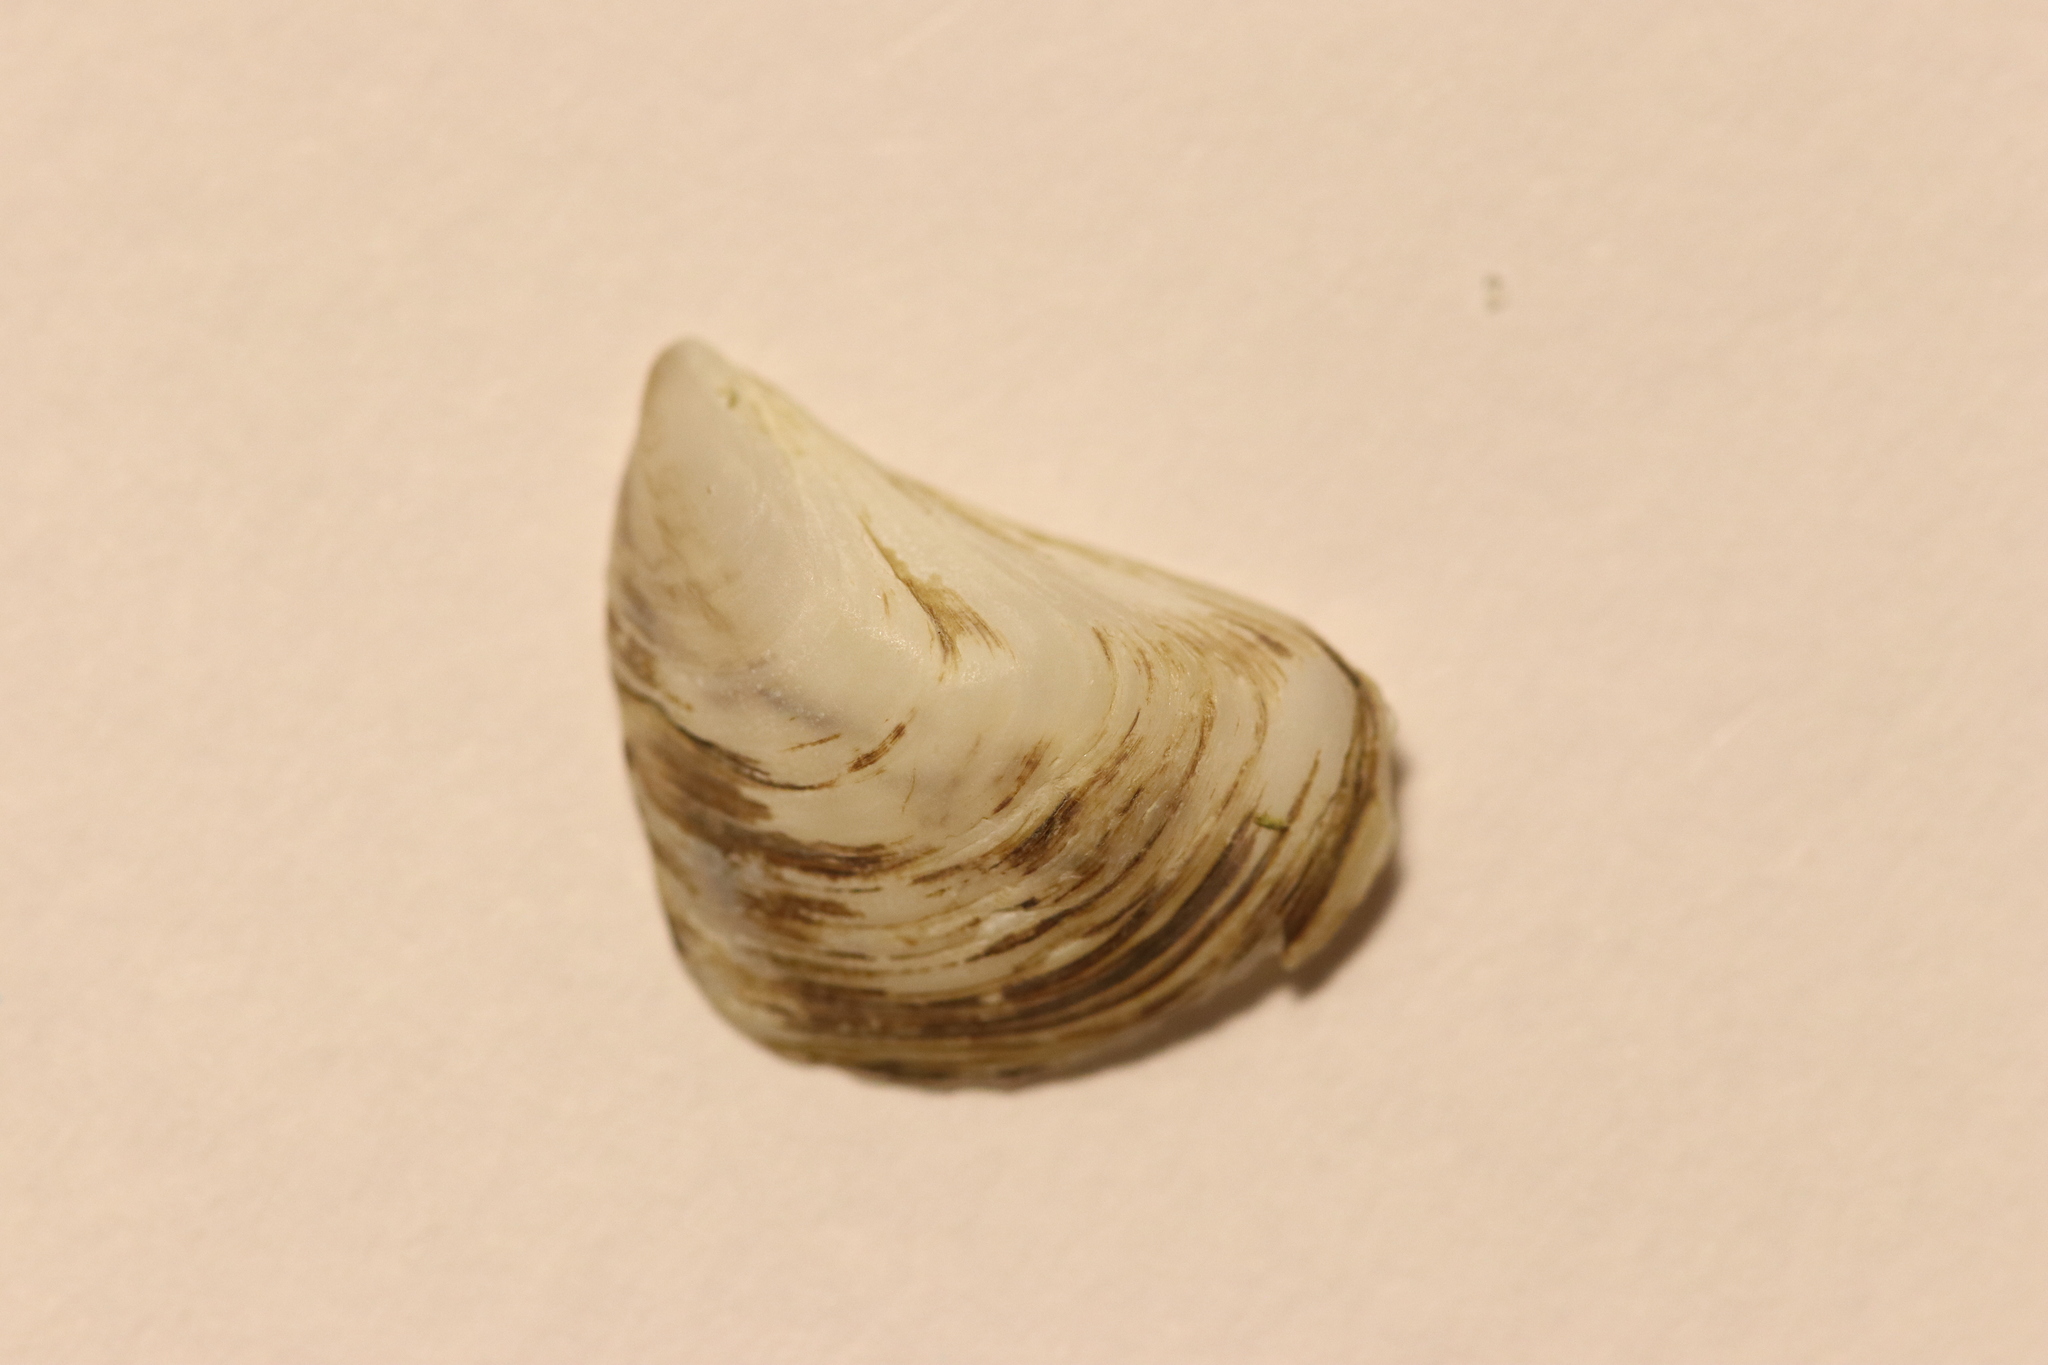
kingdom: Animalia
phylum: Mollusca
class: Bivalvia
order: Myida
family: Dreissenidae
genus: Dreissena
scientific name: Dreissena bugensis
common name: Quagga mussel
